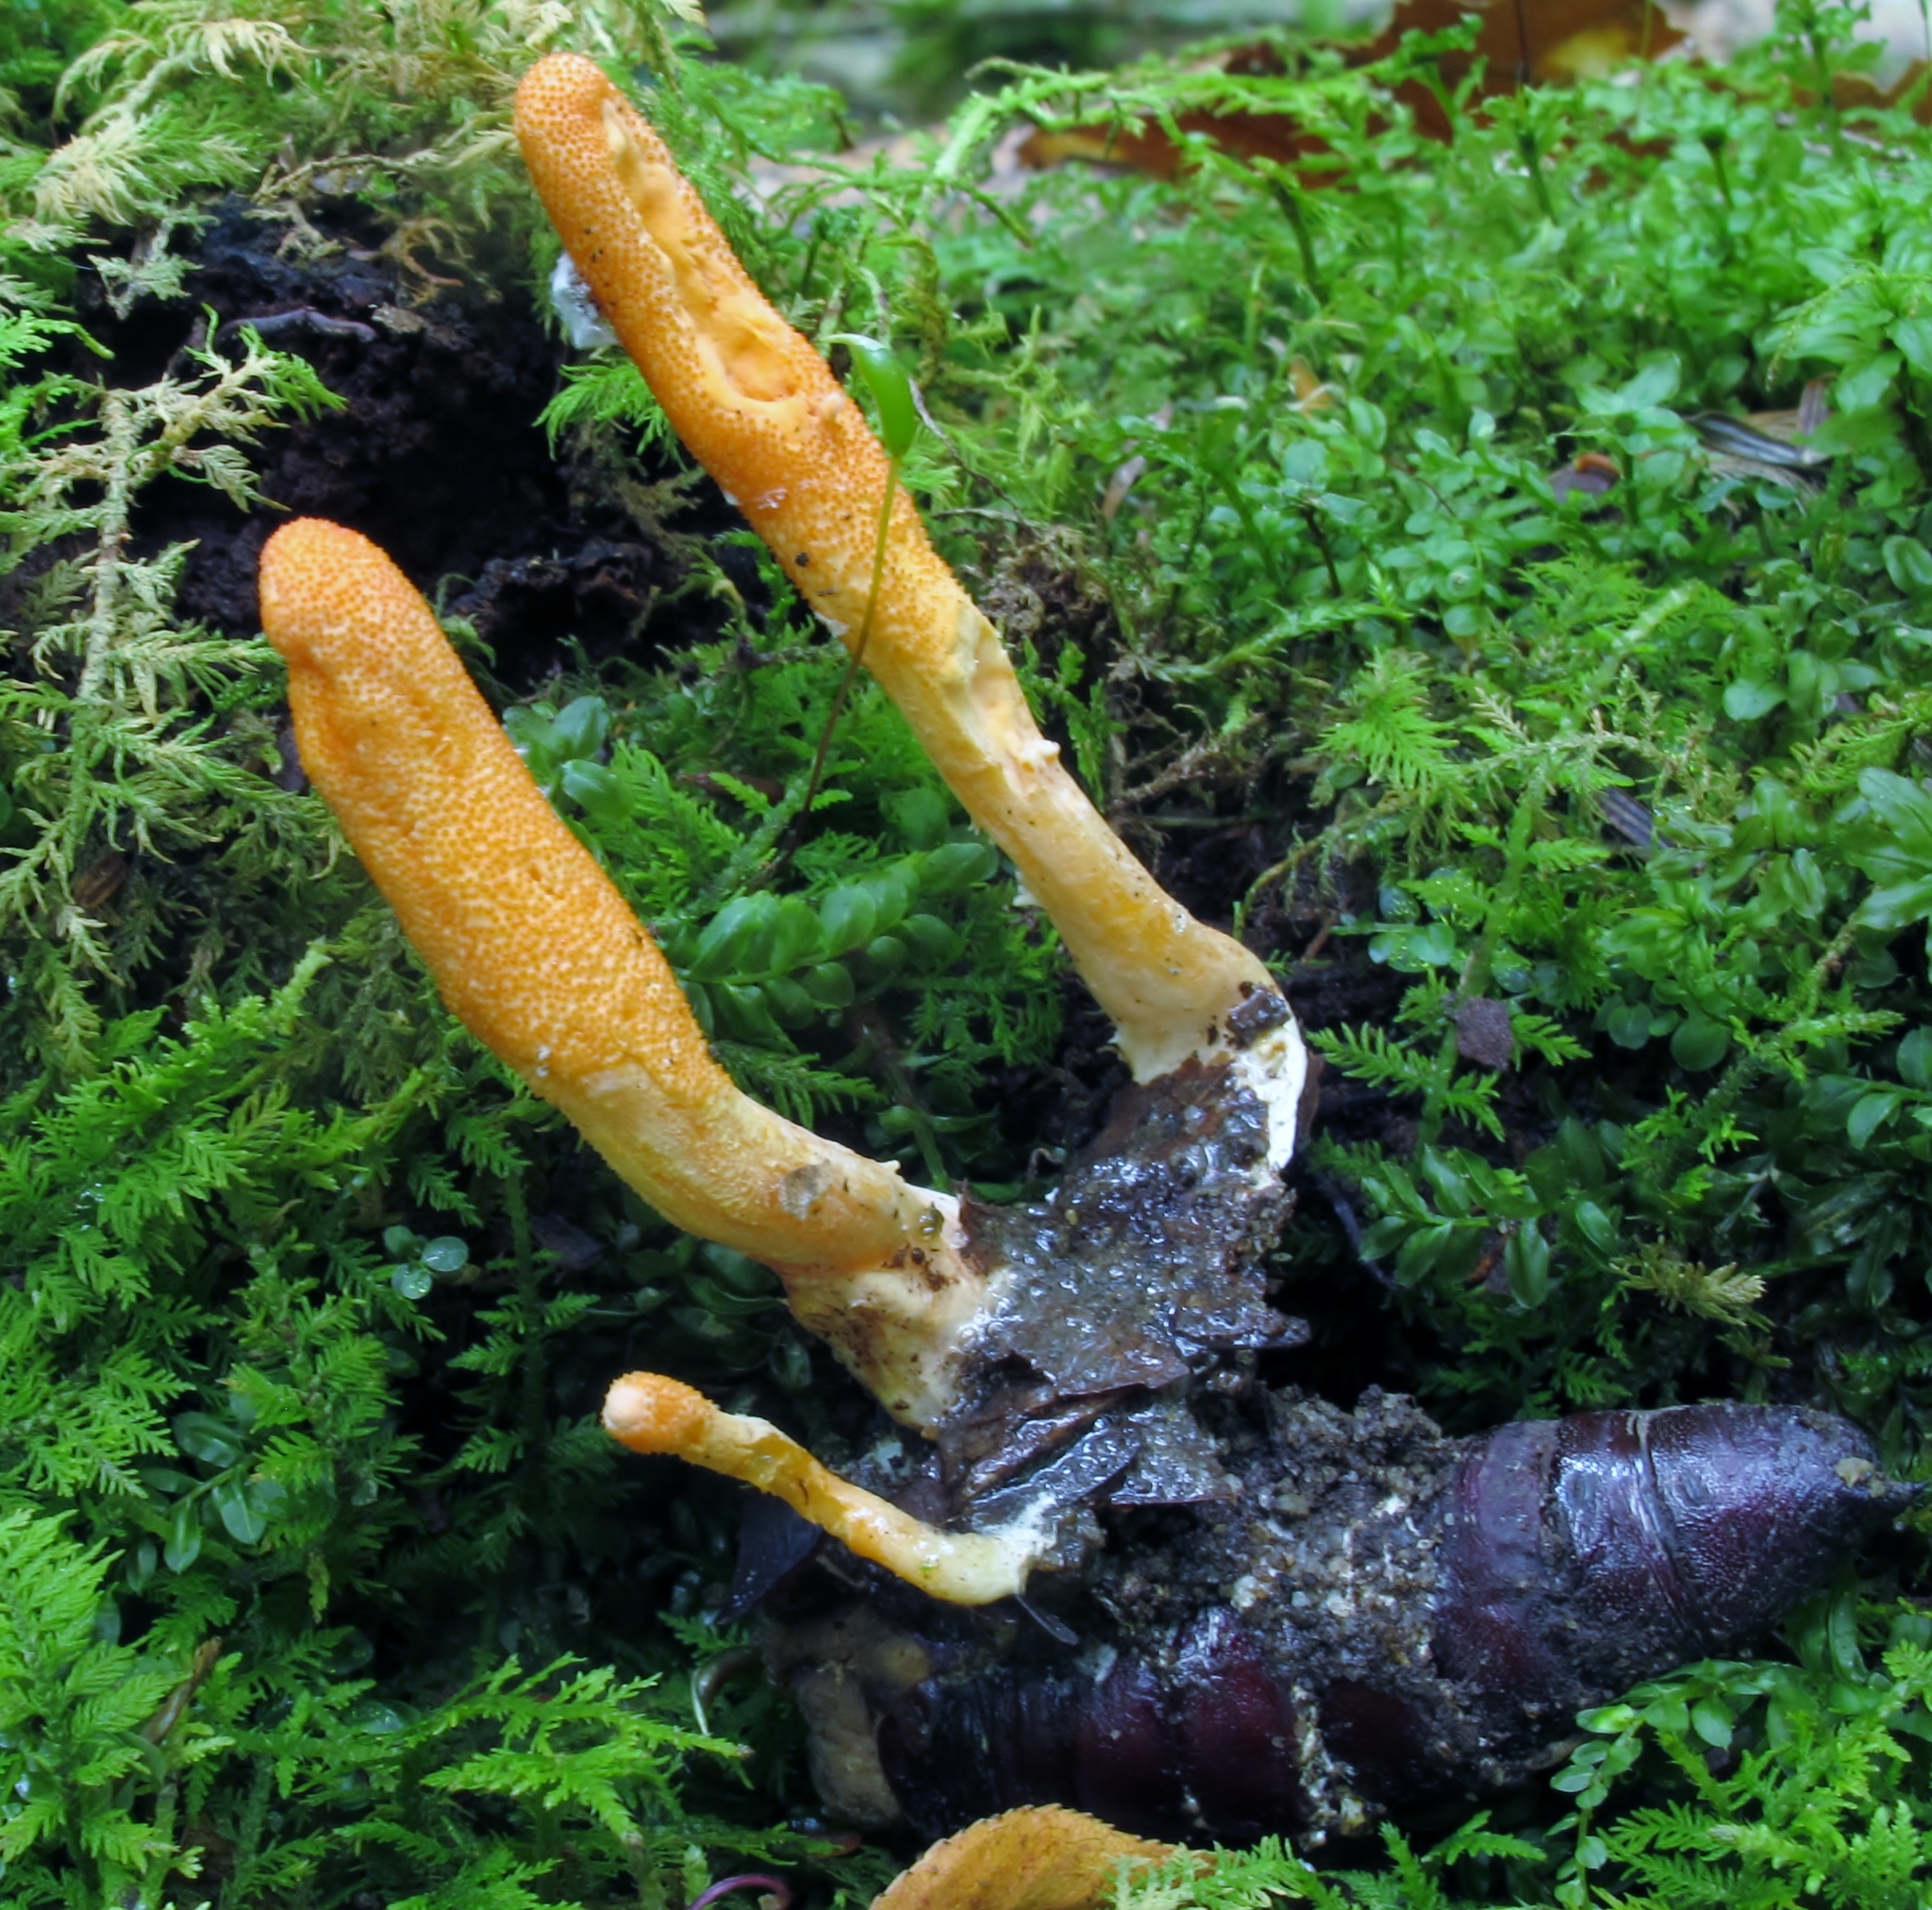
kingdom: Fungi
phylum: Ascomycota
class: Sordariomycetes
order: Hypocreales
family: Cordycipitaceae
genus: Cordyceps
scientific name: Cordyceps militaris
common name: Scarlet caterpillar fungus
